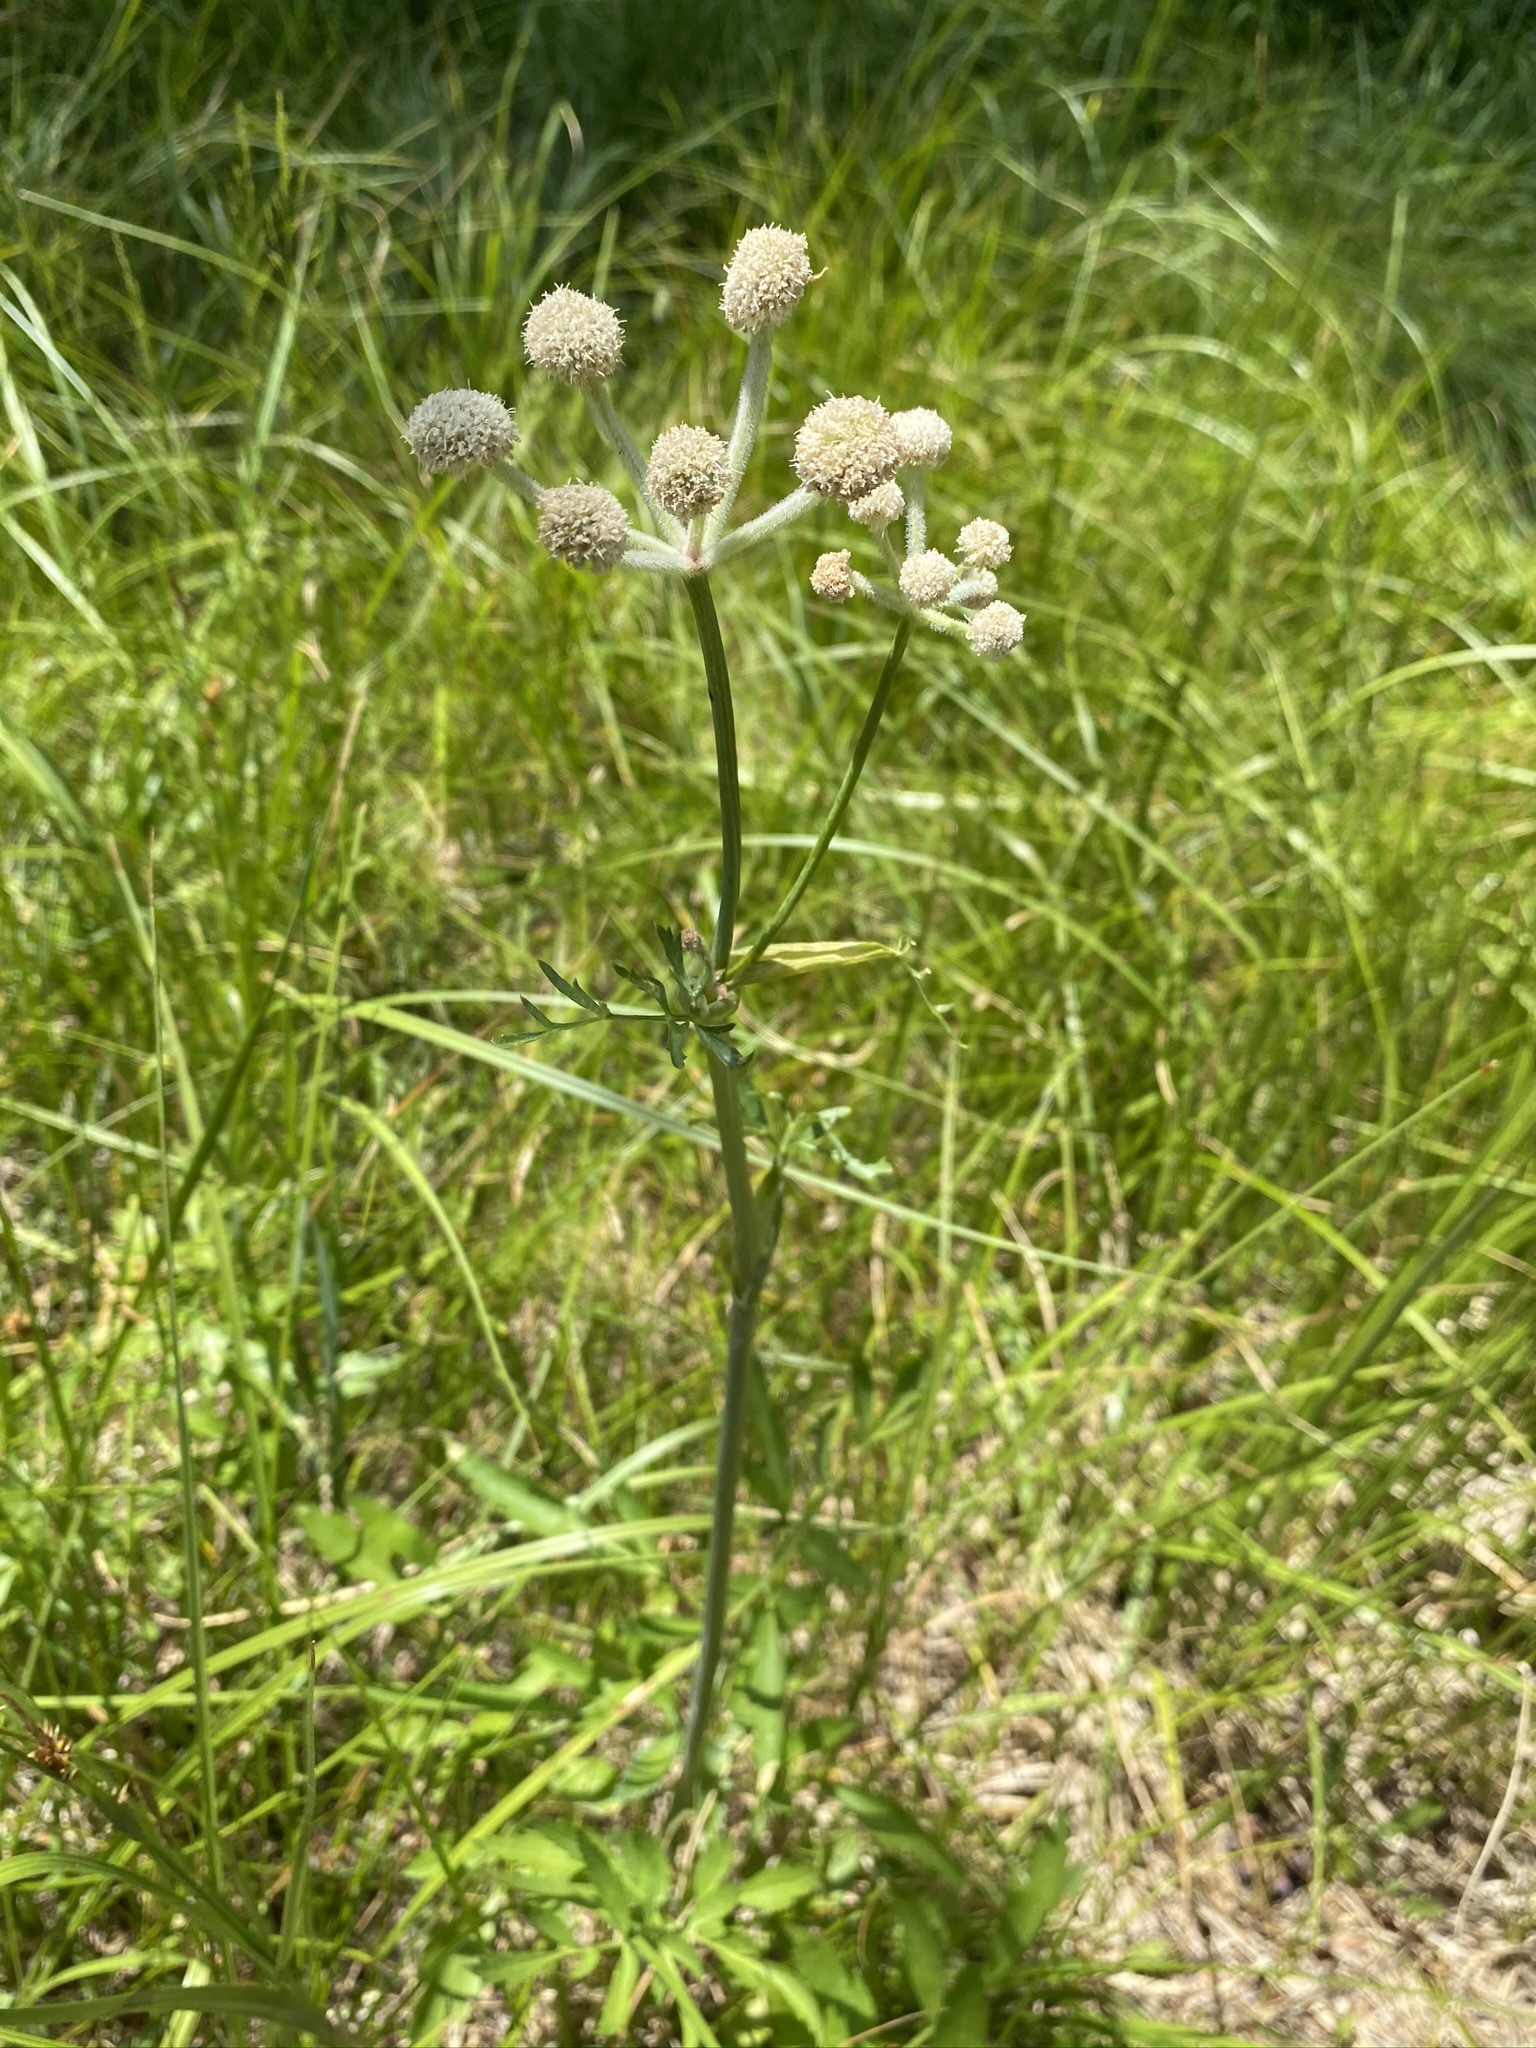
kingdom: Plantae
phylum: Tracheophyta
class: Magnoliopsida
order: Apiales
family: Apiaceae
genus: Angelica
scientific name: Angelica capitellata
